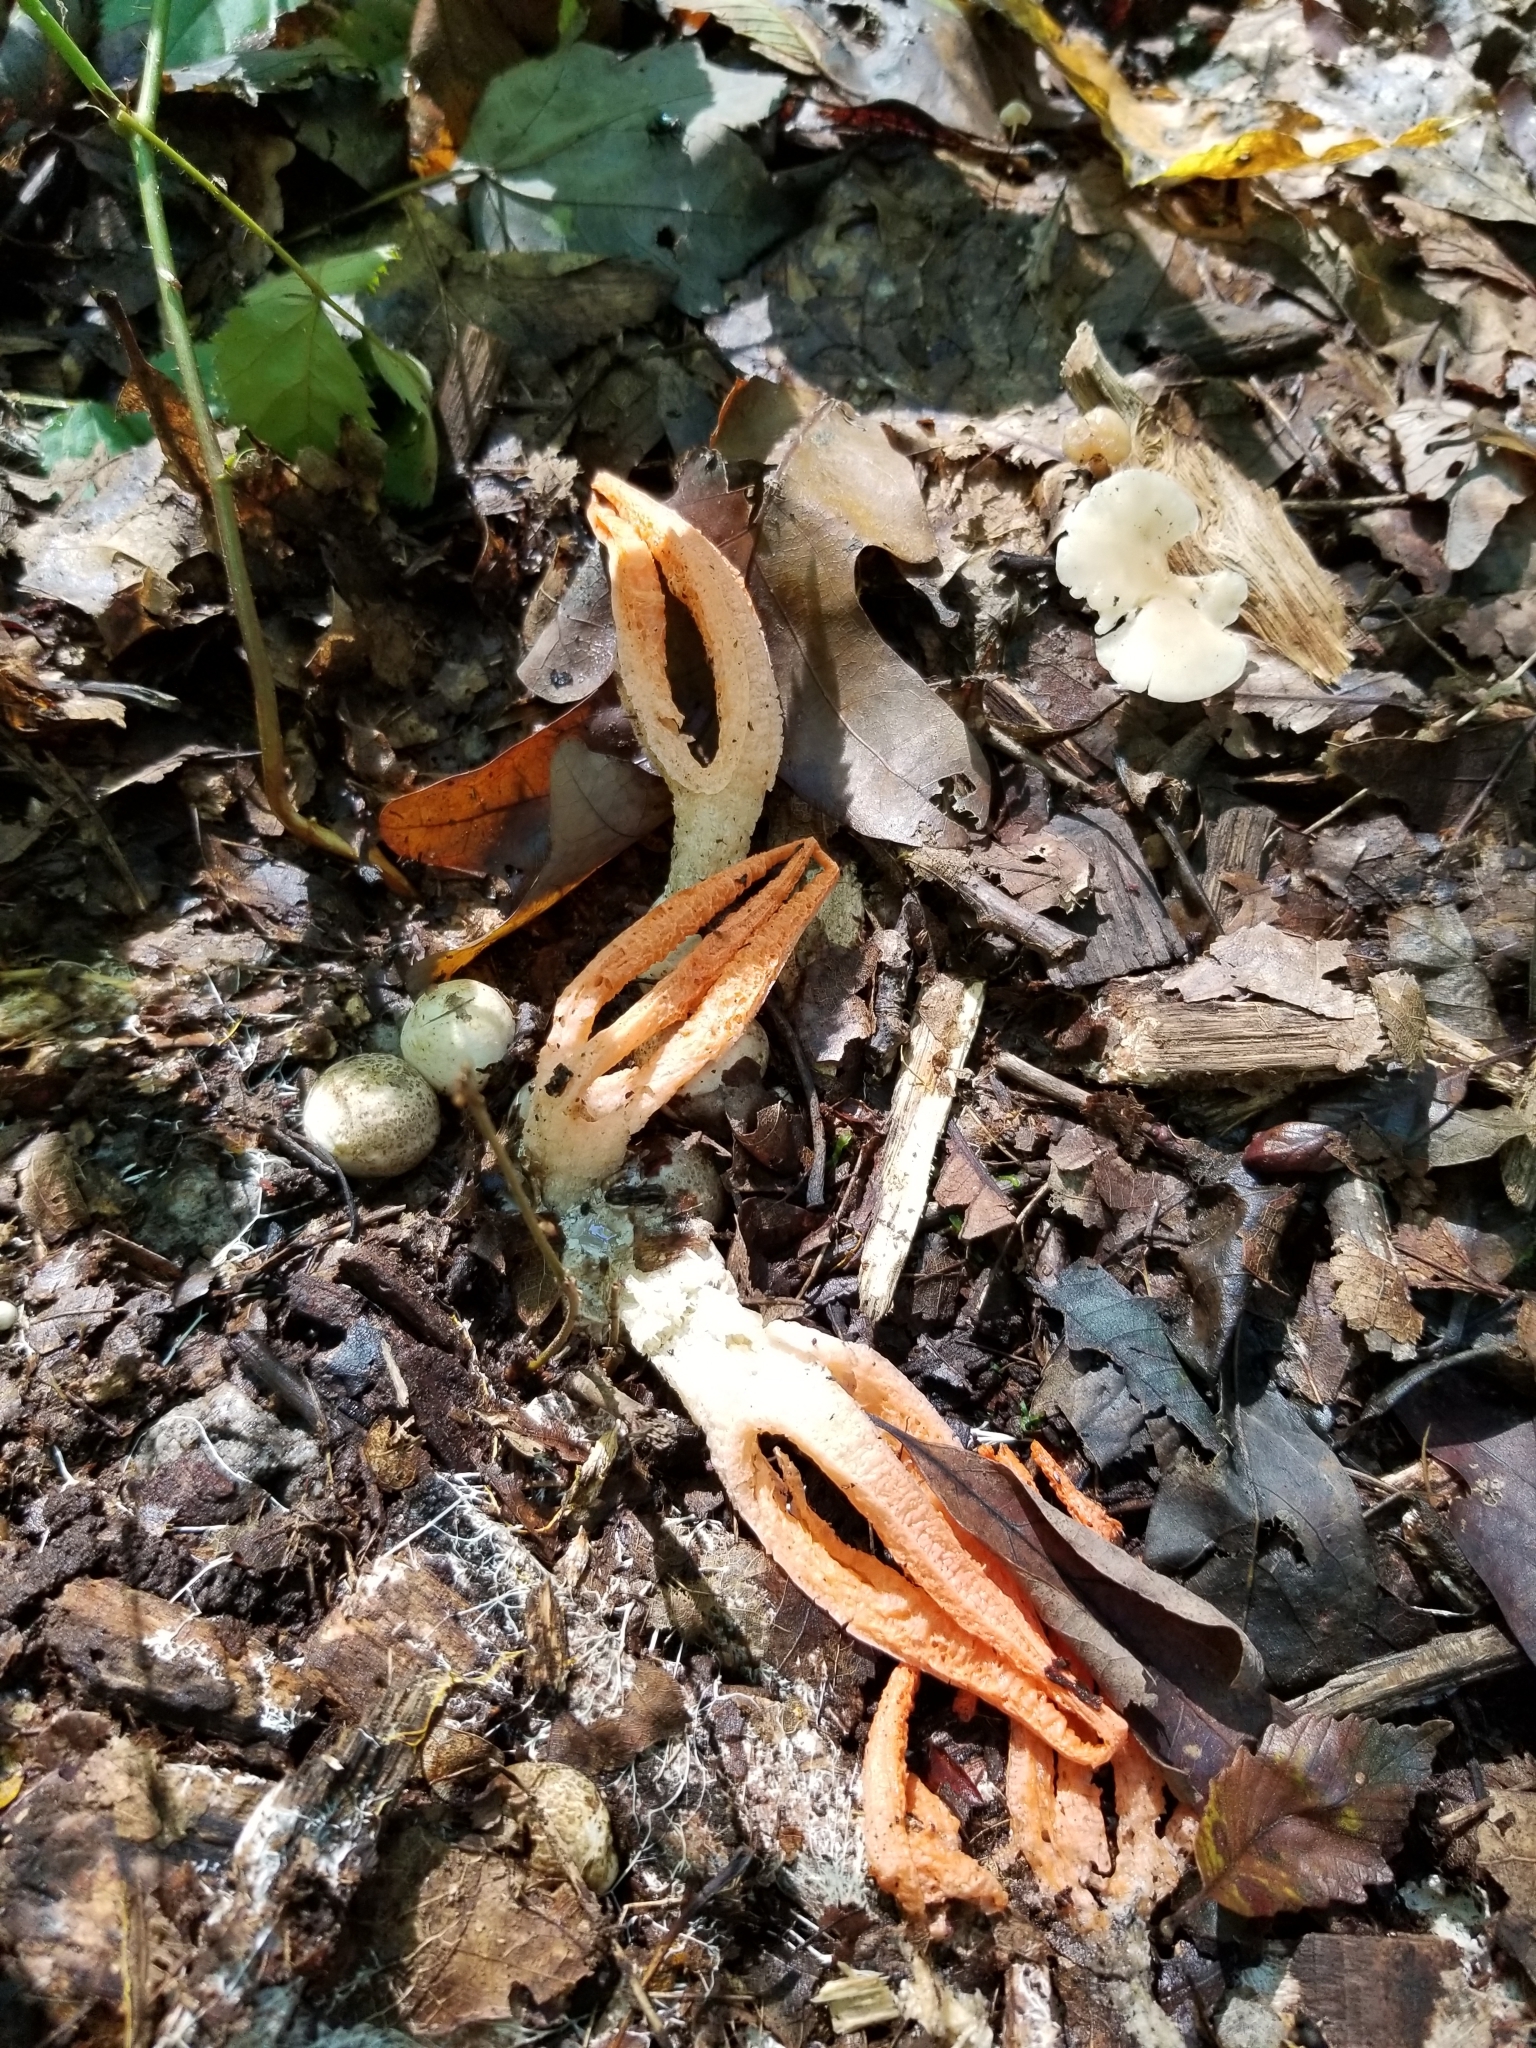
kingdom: Fungi
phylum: Basidiomycota
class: Agaricomycetes
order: Phallales
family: Phallaceae
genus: Pseudocolus
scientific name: Pseudocolus fusiformis
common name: Stinky squid
